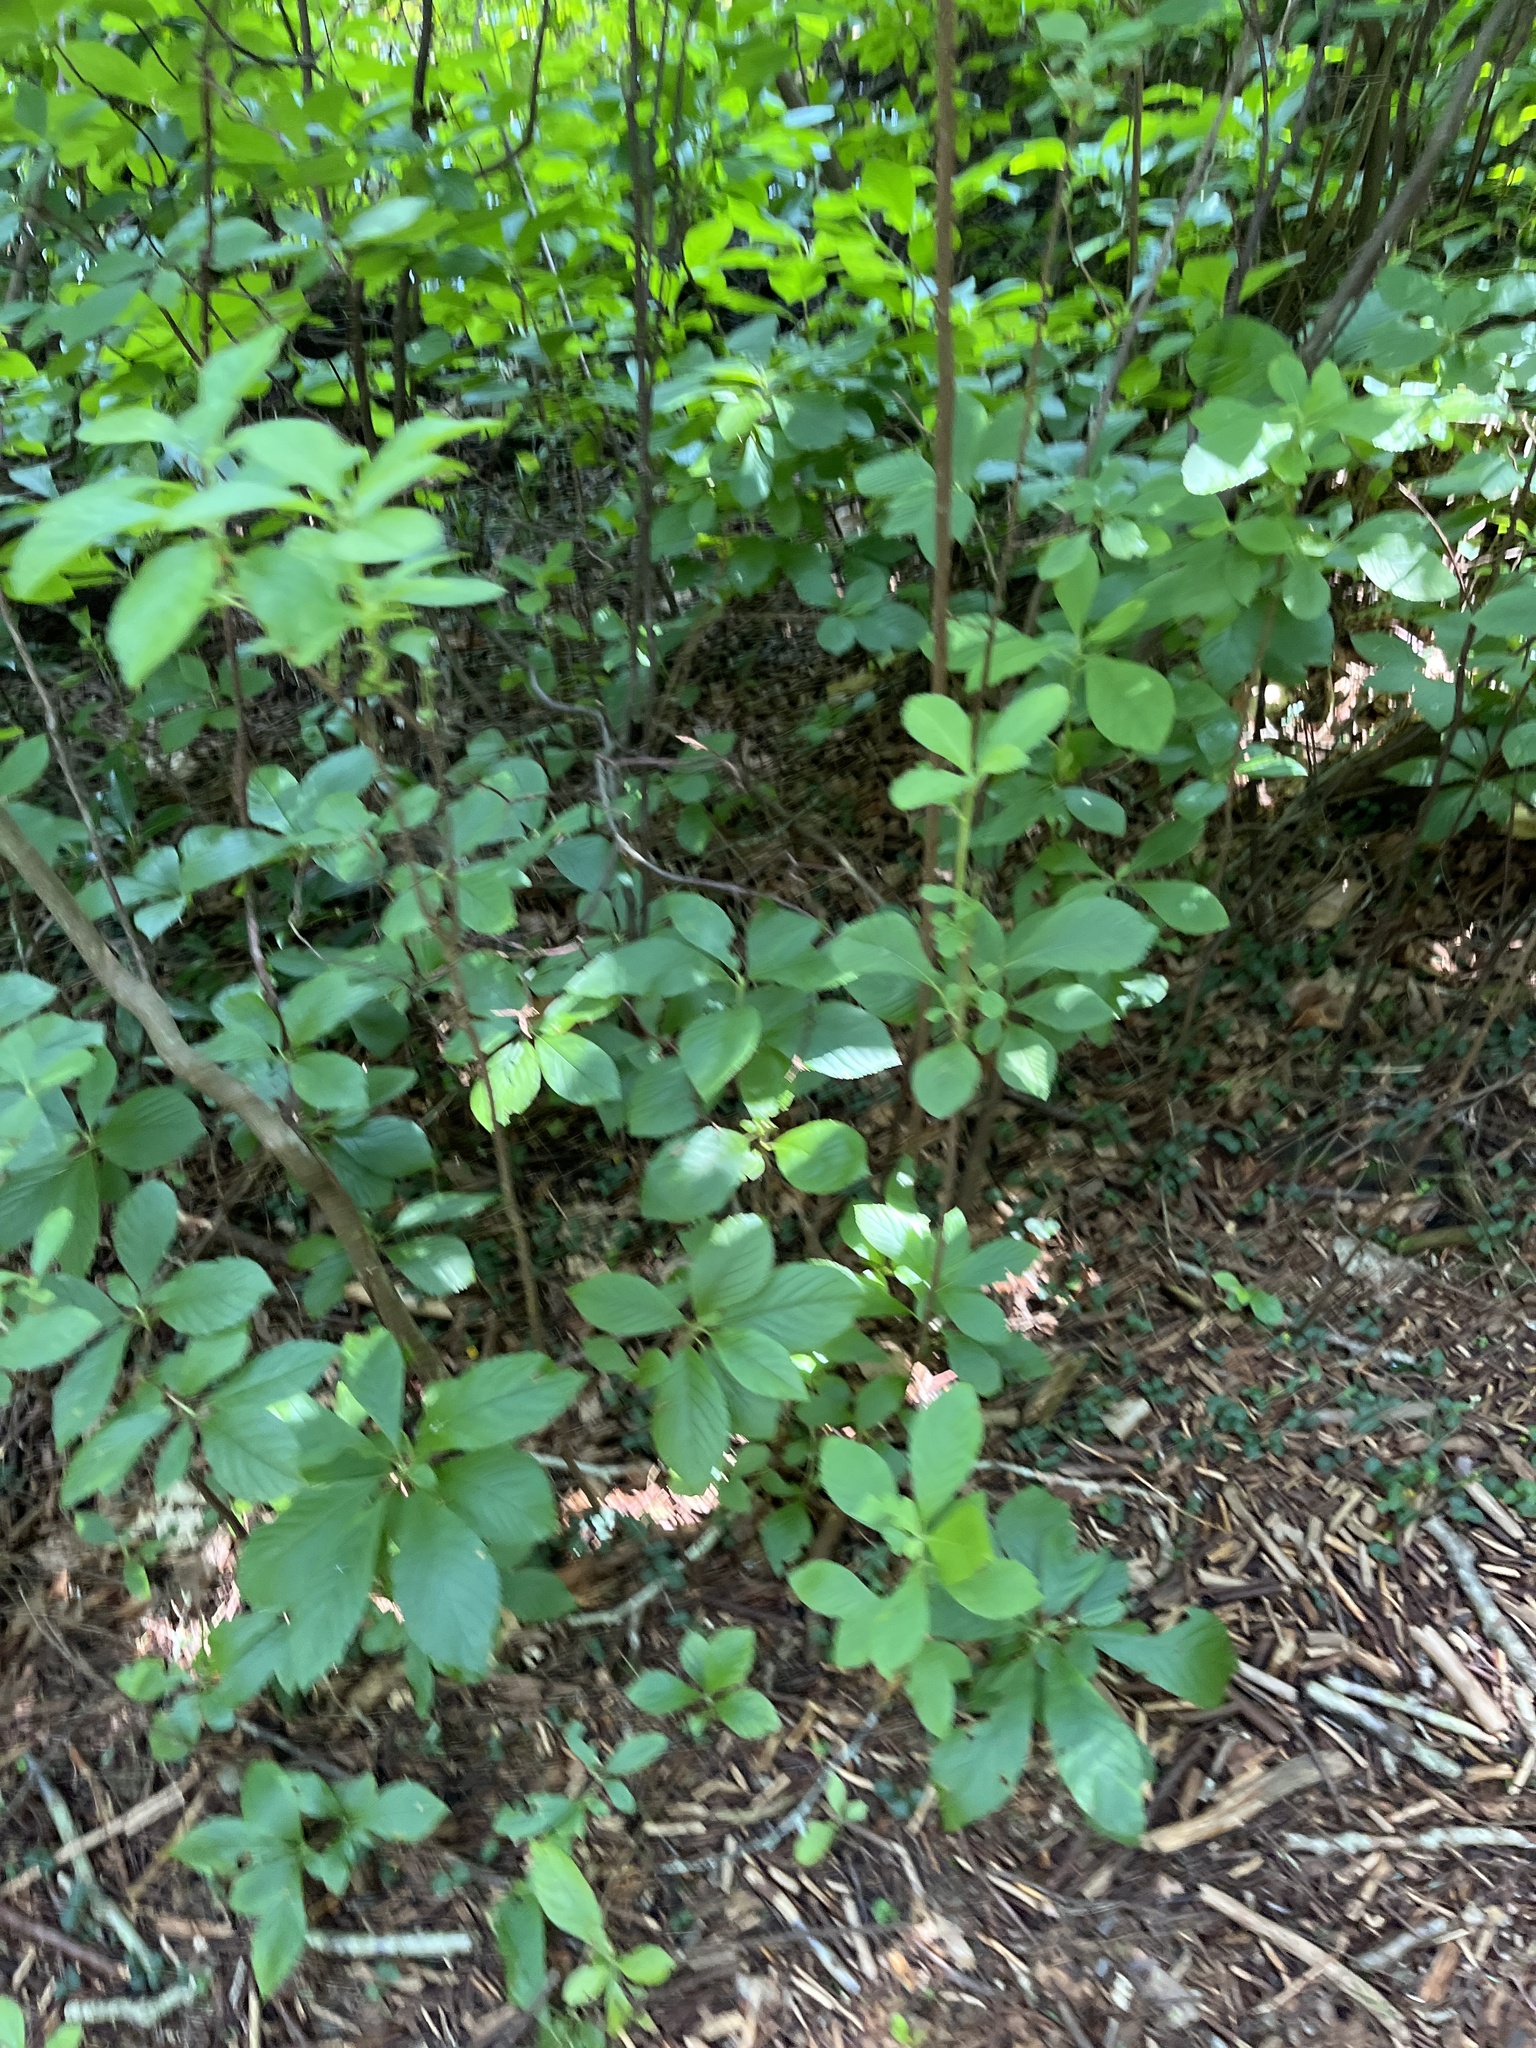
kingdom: Plantae
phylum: Tracheophyta
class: Magnoliopsida
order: Ericales
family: Clethraceae
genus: Clethra
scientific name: Clethra alnifolia
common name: Sweet pepperbush
